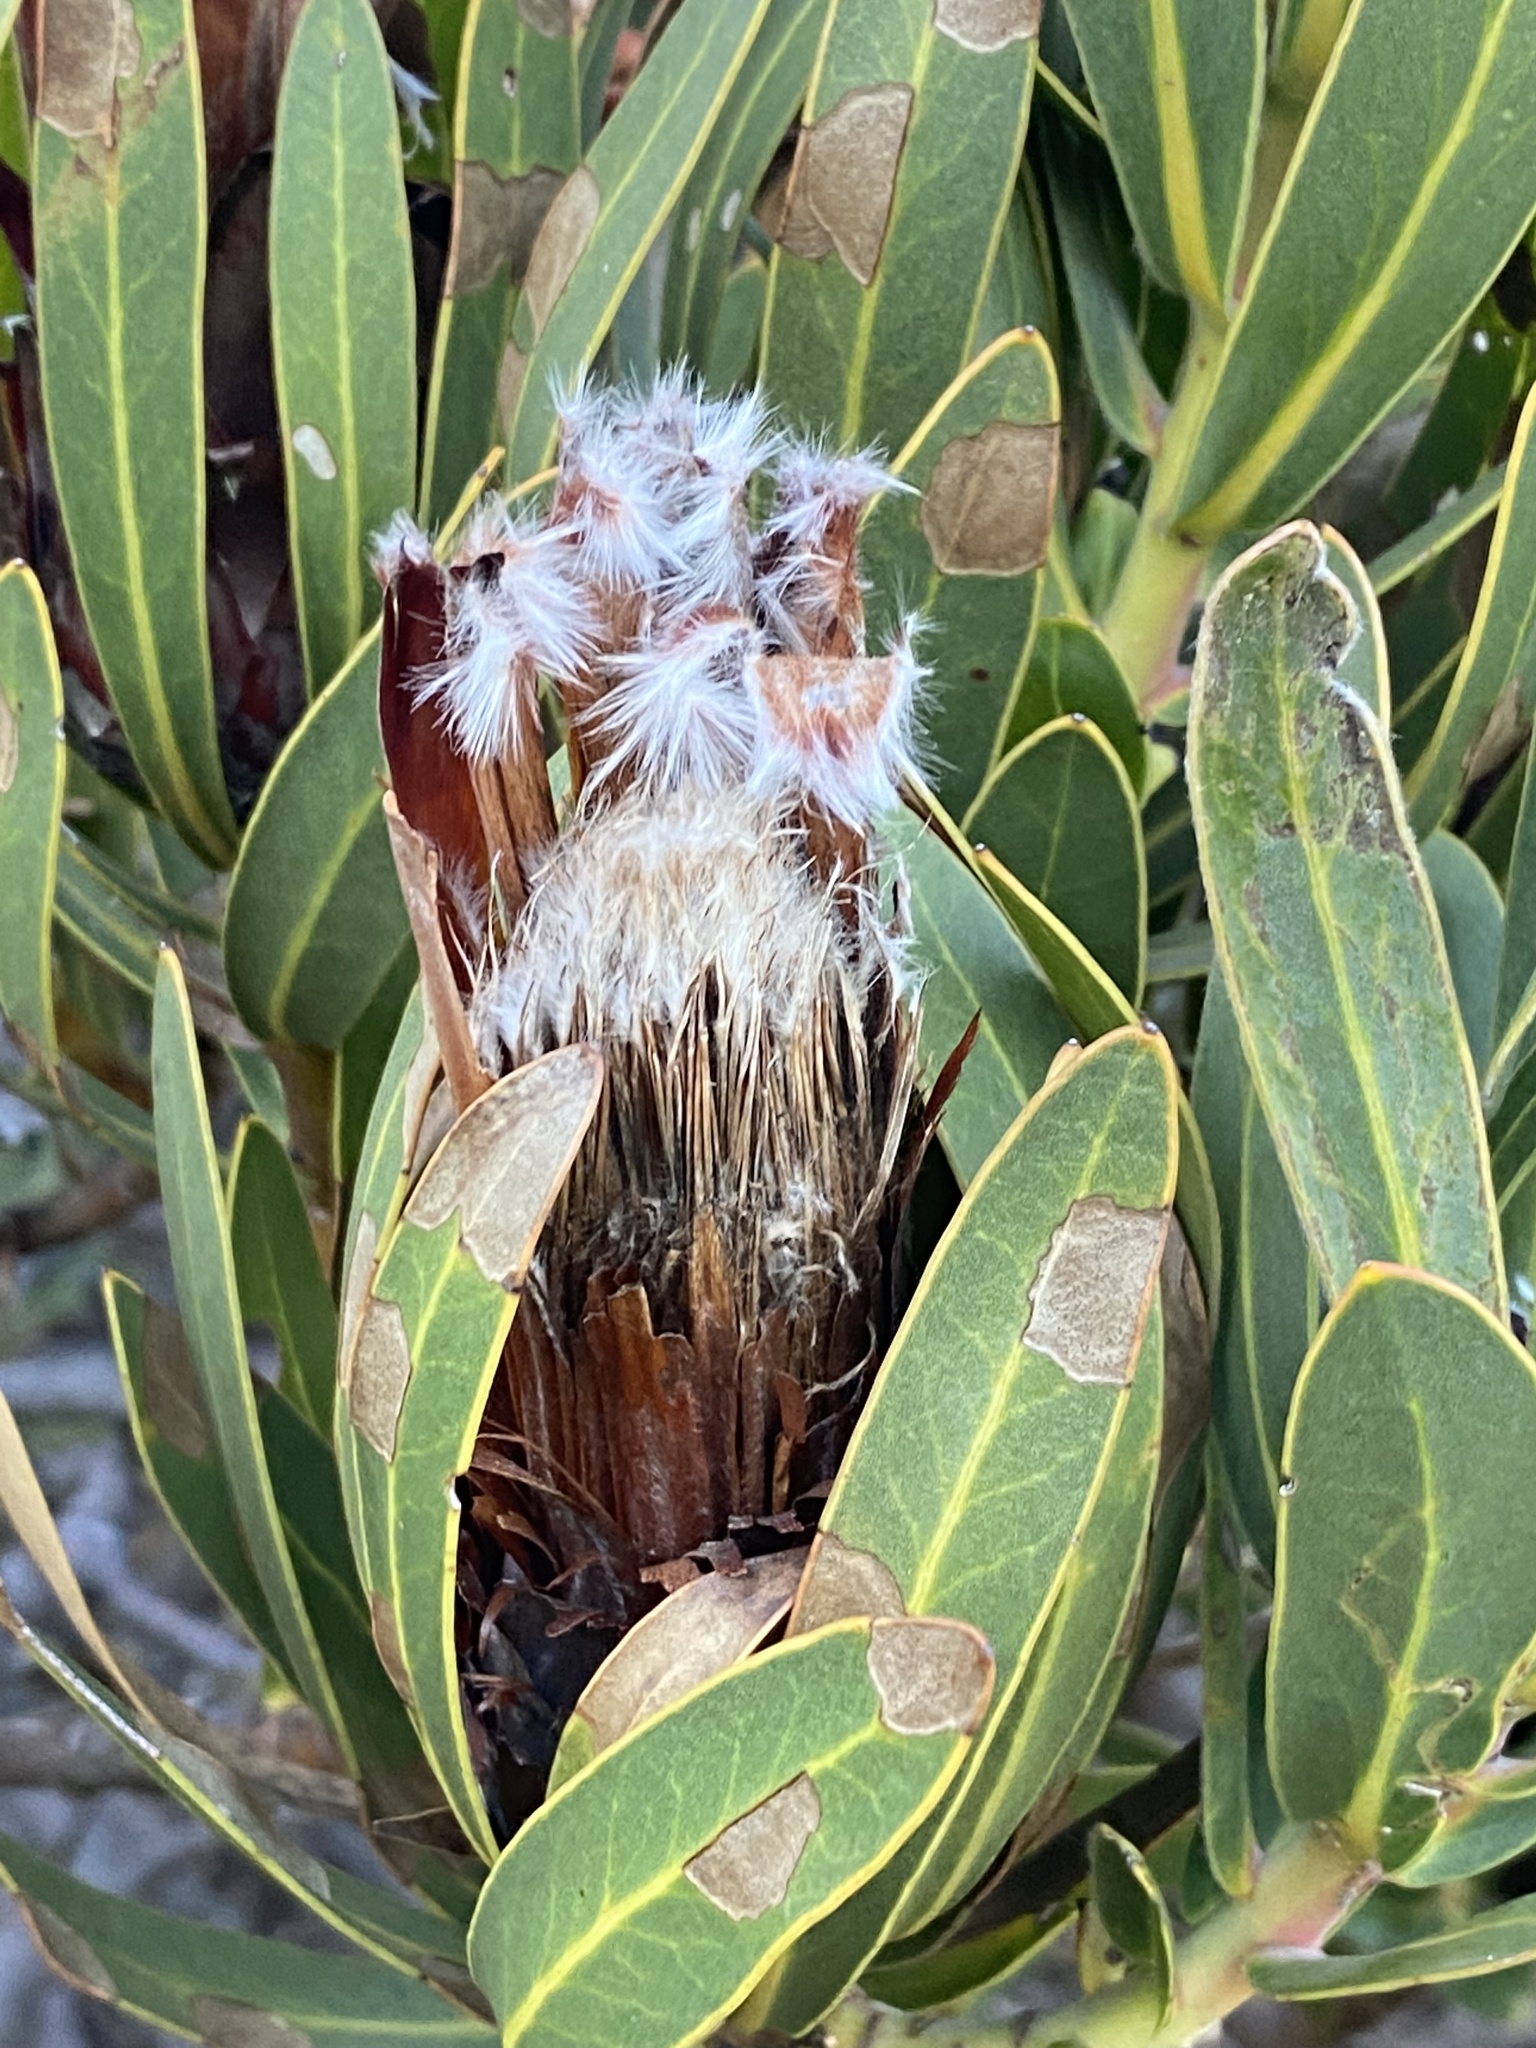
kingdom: Plantae
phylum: Tracheophyta
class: Magnoliopsida
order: Proteales
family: Proteaceae
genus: Protea
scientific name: Protea lepidocarpodendron
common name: Black-bearded protea
